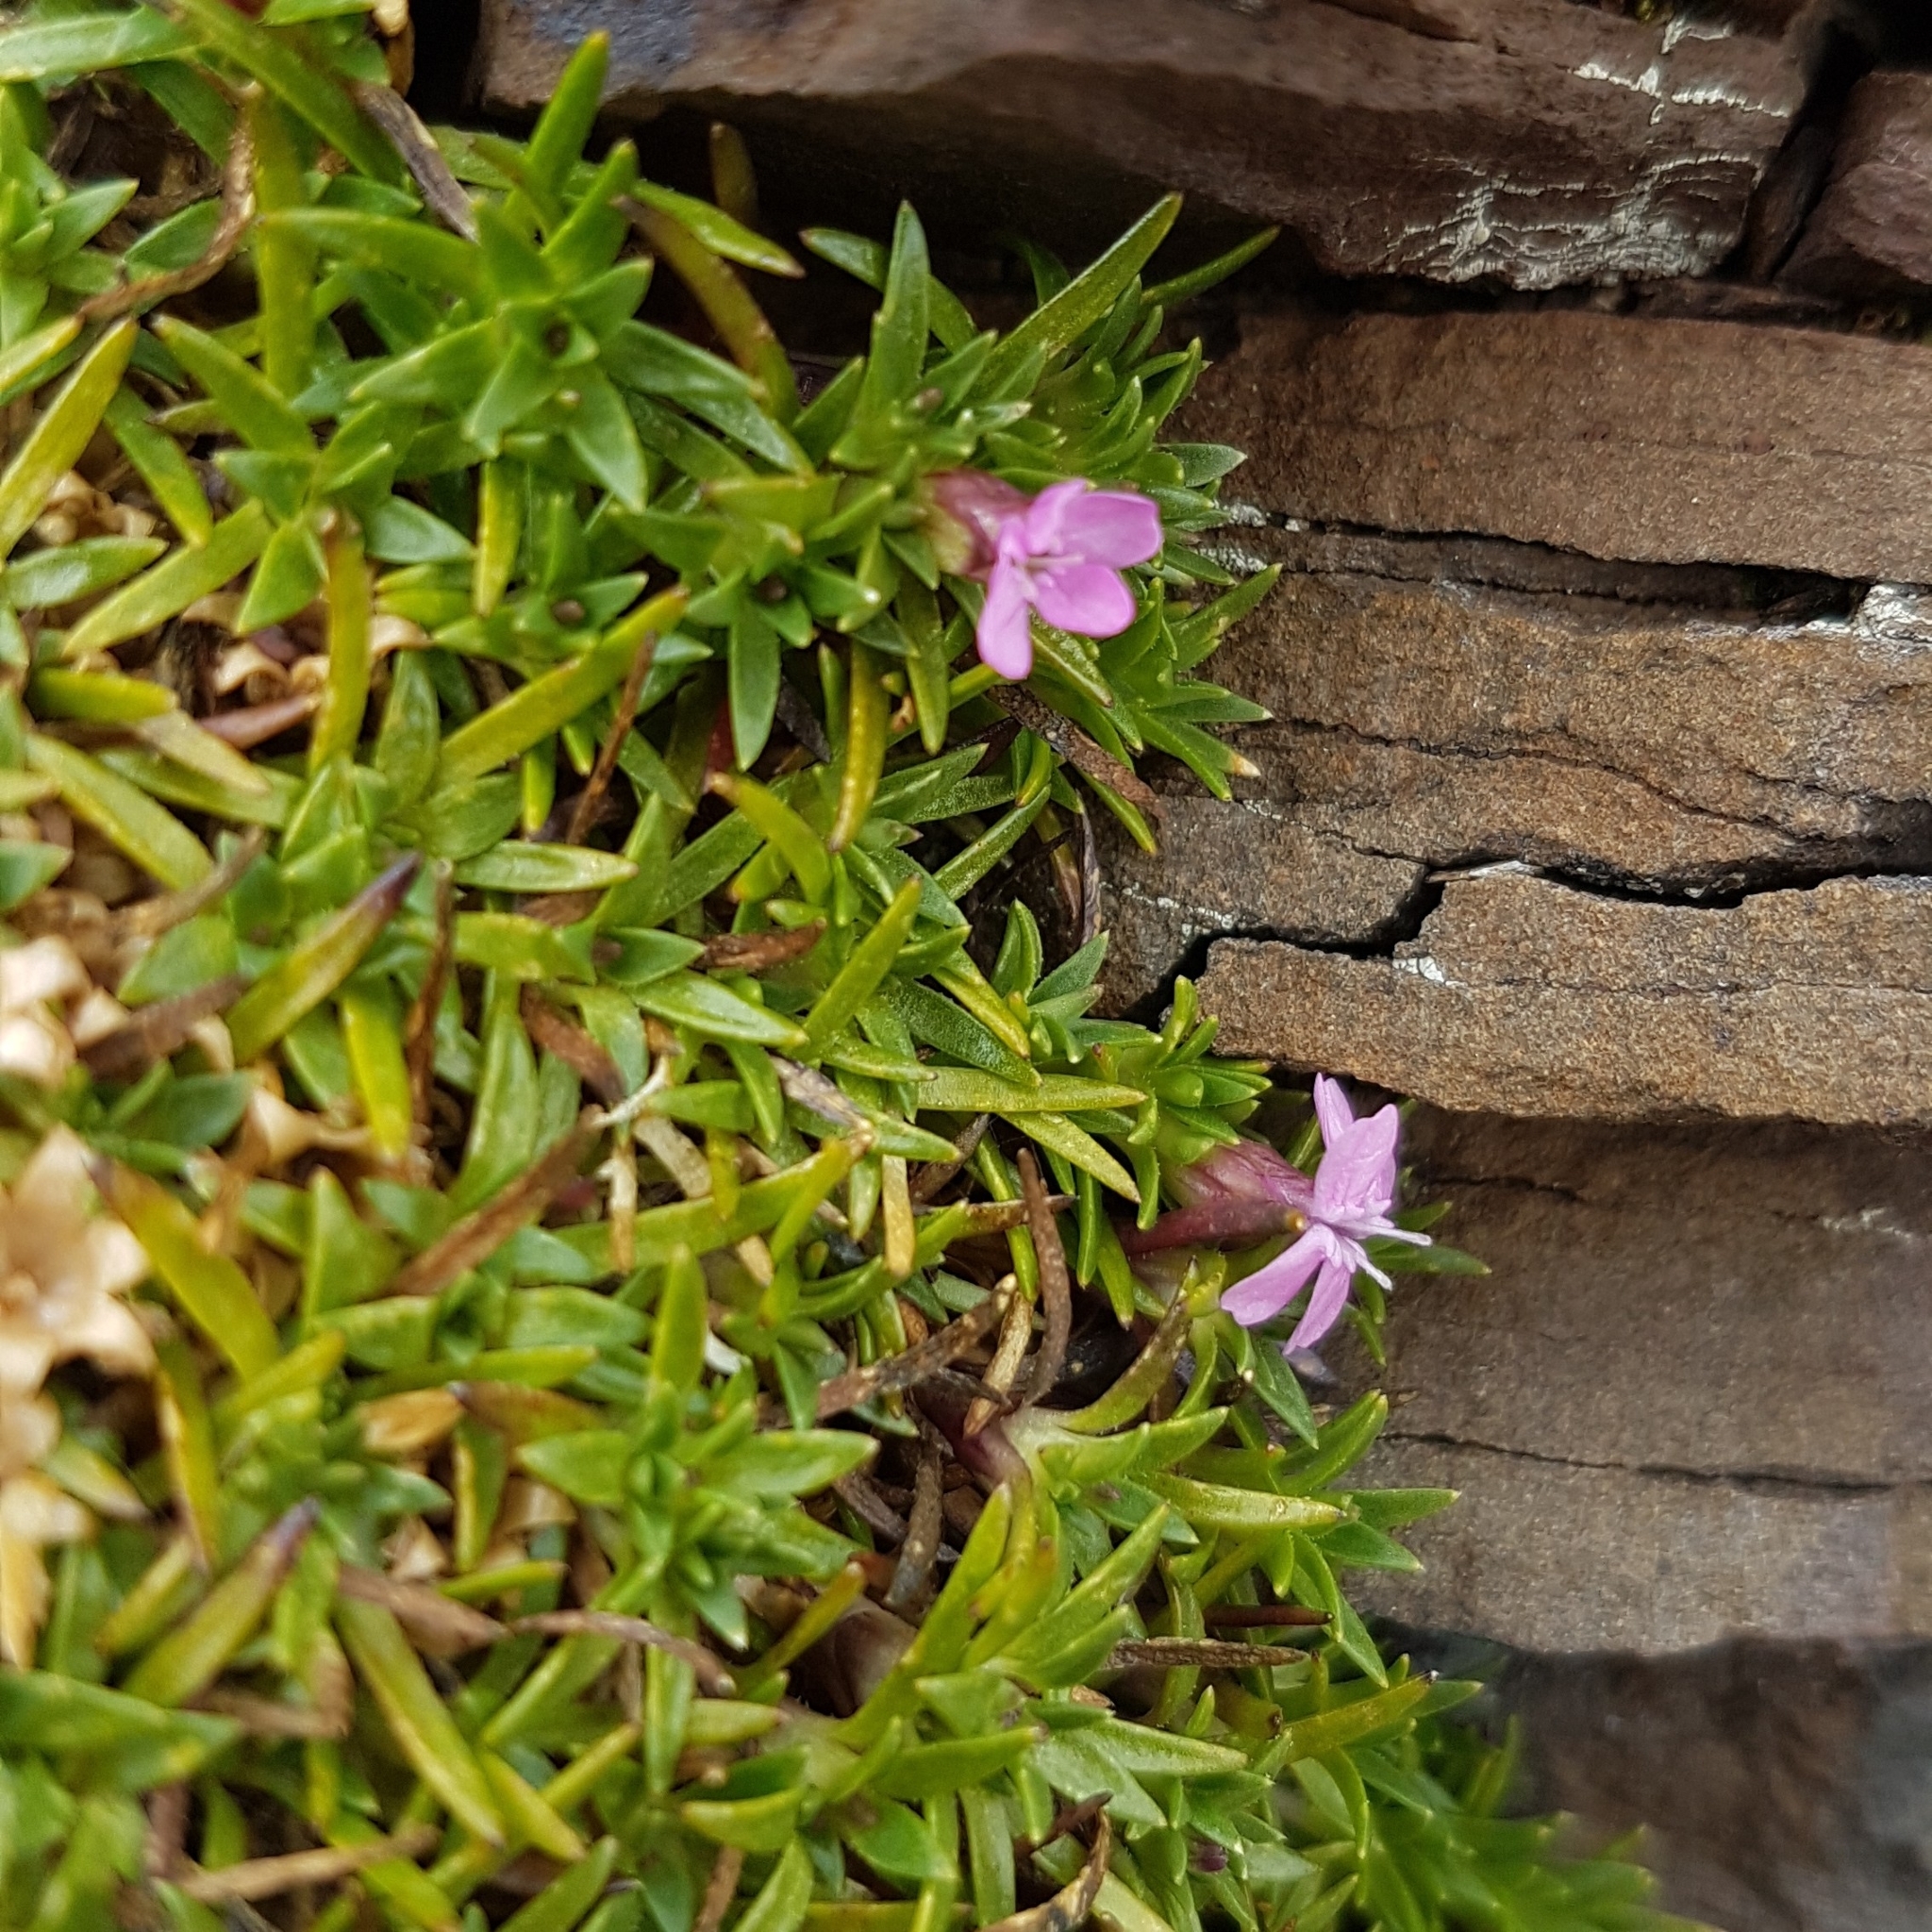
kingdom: Plantae
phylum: Tracheophyta
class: Magnoliopsida
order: Caryophyllales
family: Caryophyllaceae
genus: Silene
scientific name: Silene acaulis
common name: Moss campion
